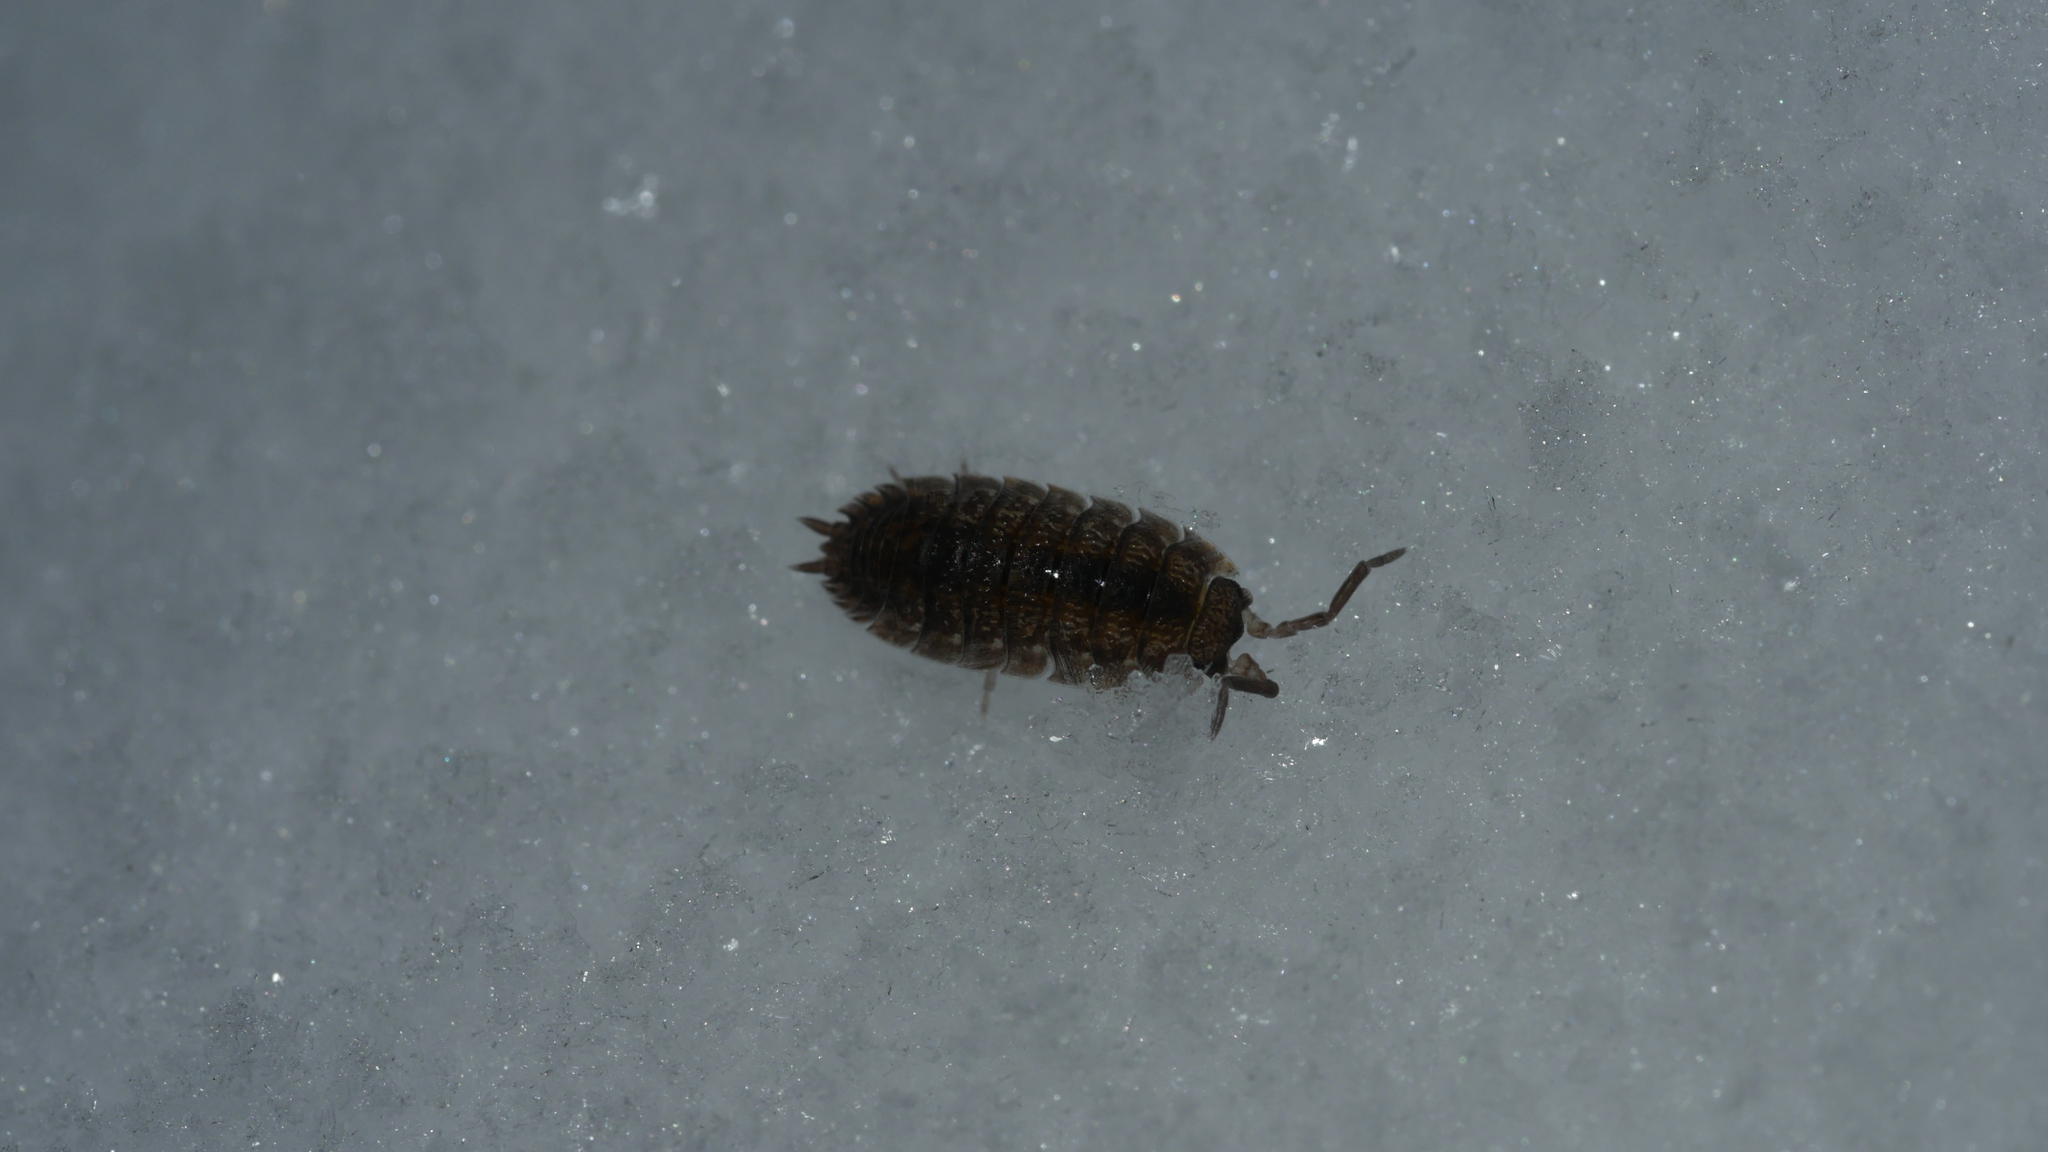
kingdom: Animalia
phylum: Arthropoda
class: Malacostraca
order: Isopoda
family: Porcellionidae
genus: Porcellio
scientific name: Porcellio scaber
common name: Common rough woodlouse
